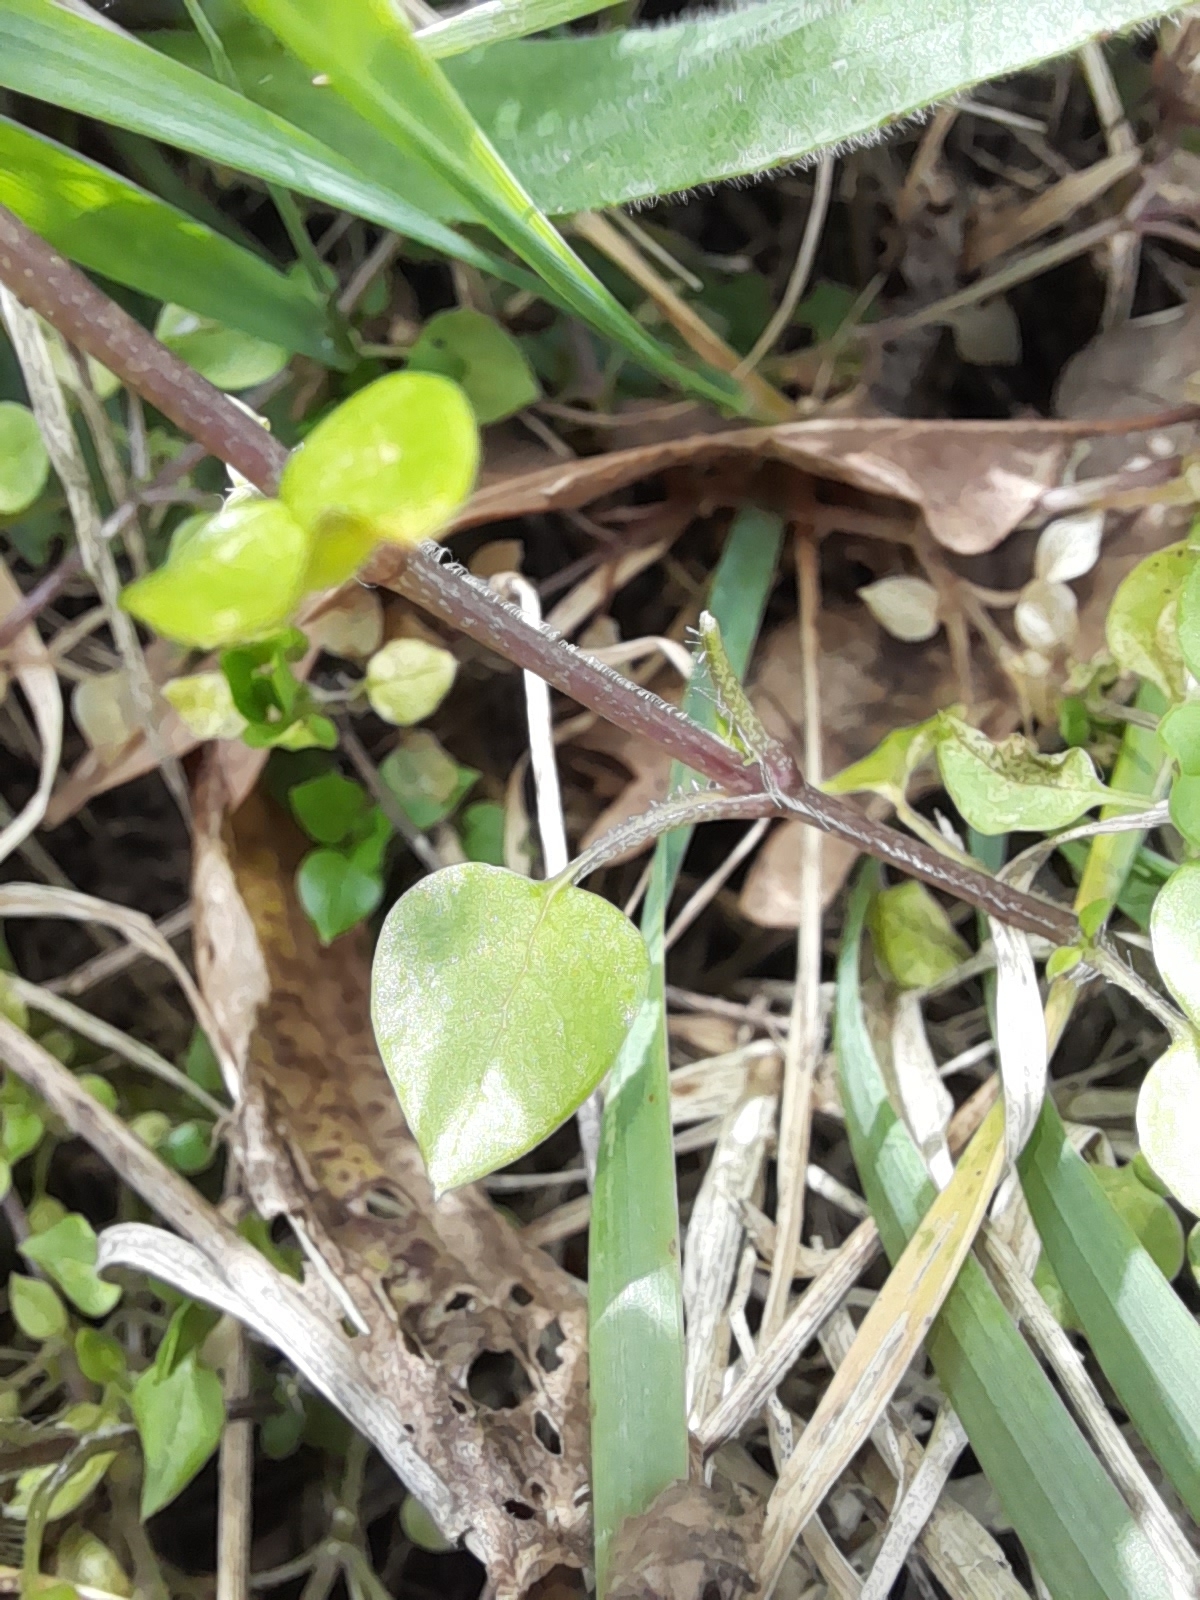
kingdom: Plantae
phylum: Tracheophyta
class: Magnoliopsida
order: Caryophyllales
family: Caryophyllaceae
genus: Stellaria
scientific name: Stellaria media
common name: Common chickweed
